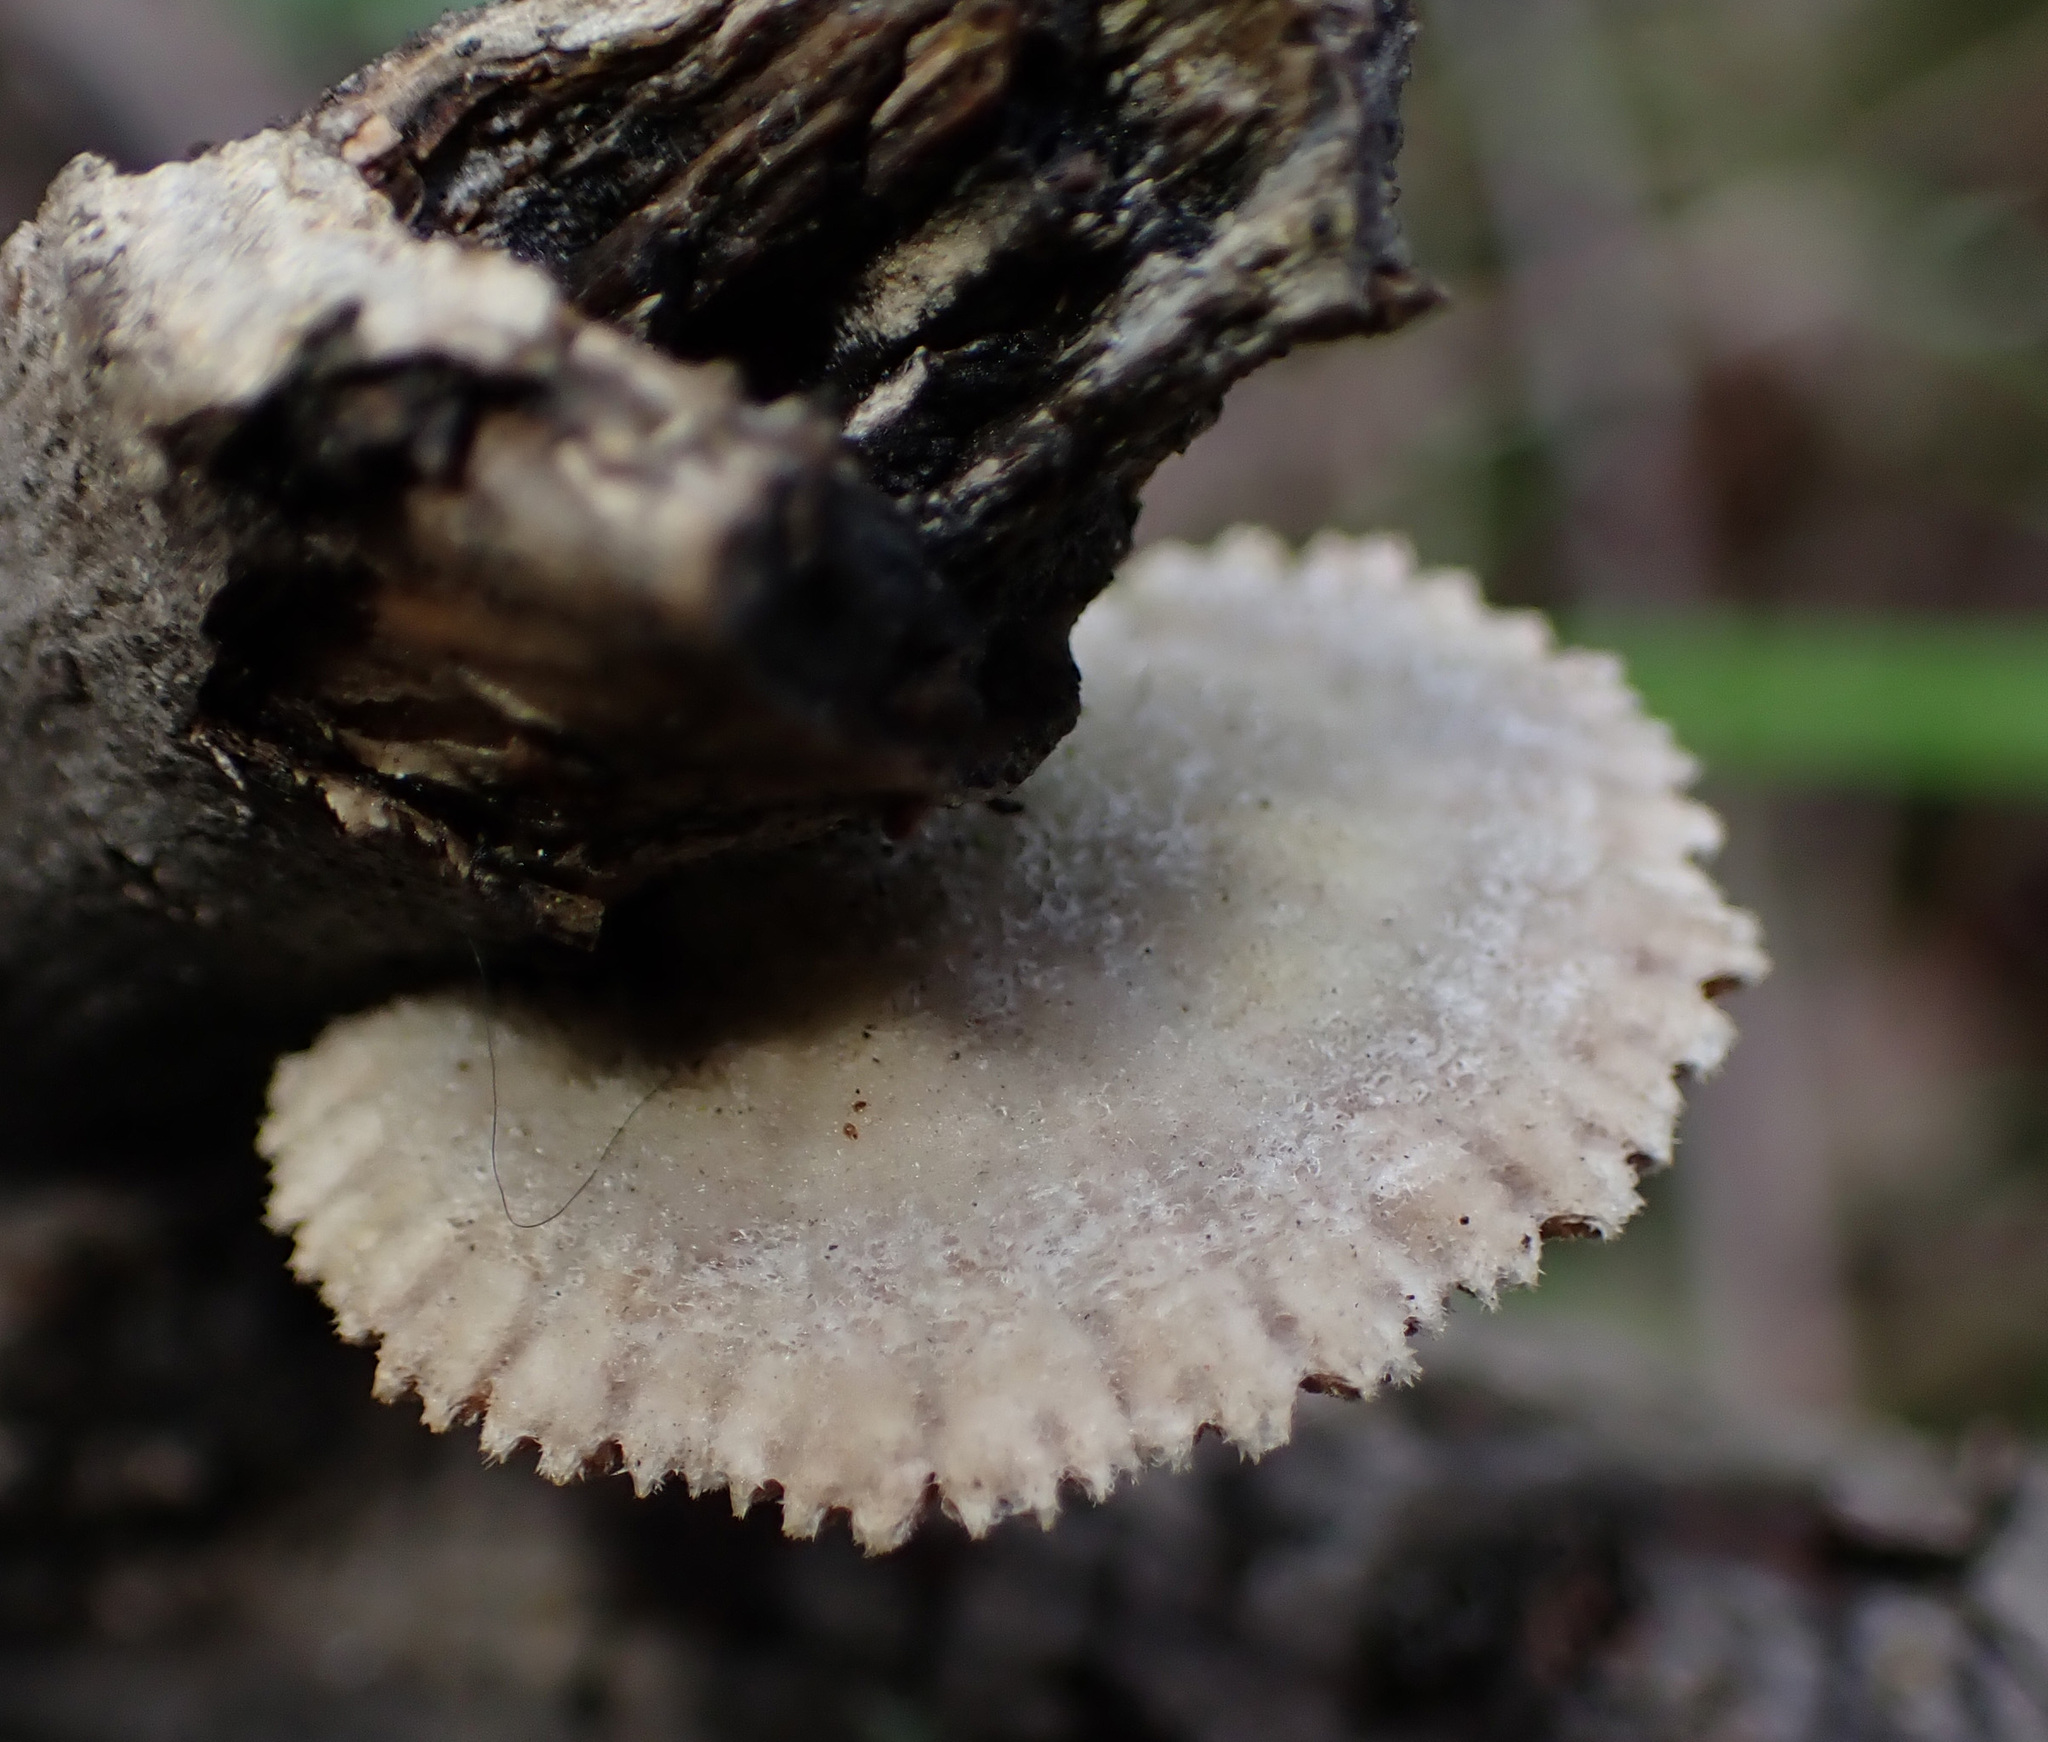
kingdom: Fungi
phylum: Basidiomycota
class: Agaricomycetes
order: Agaricales
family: Schizophyllaceae
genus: Schizophyllum
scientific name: Schizophyllum commune
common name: Common porecrust
